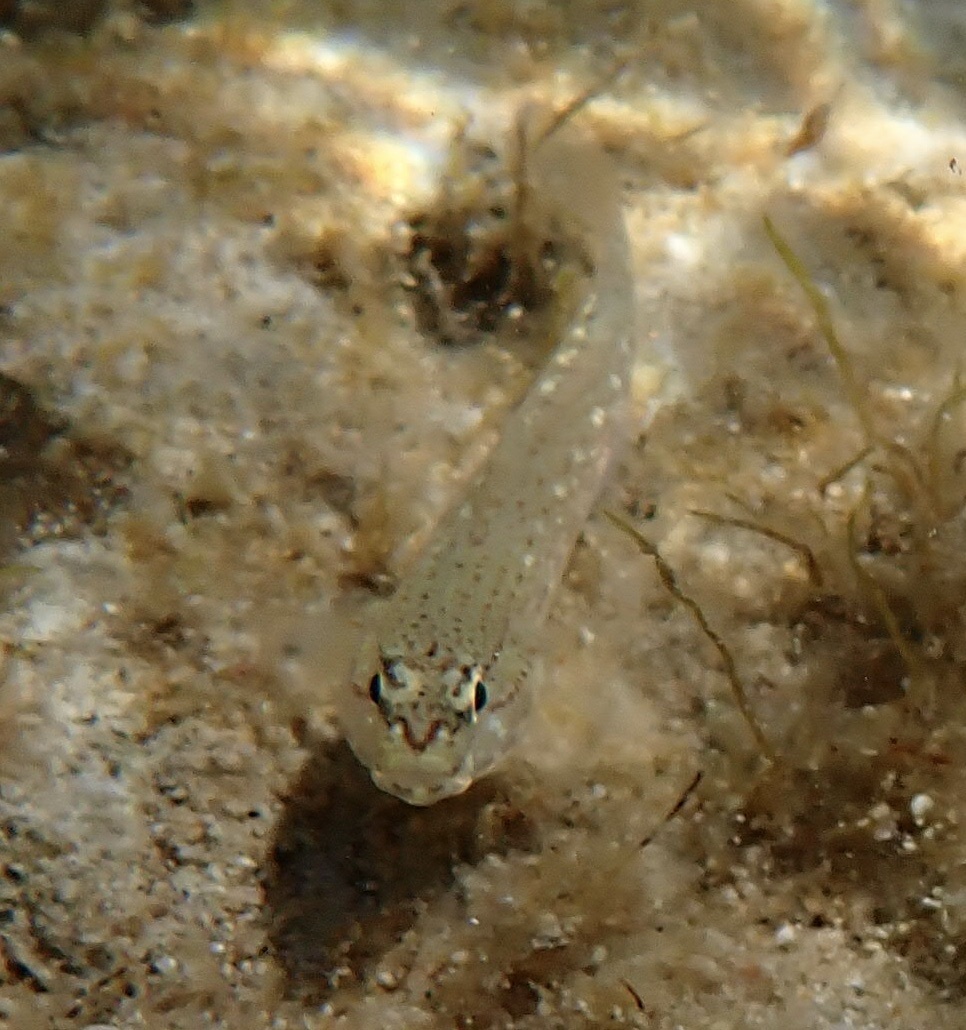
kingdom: Animalia
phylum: Chordata
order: Perciformes
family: Gobiidae
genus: Gobius
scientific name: Gobius bucchichi
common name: Bucchich's goby
